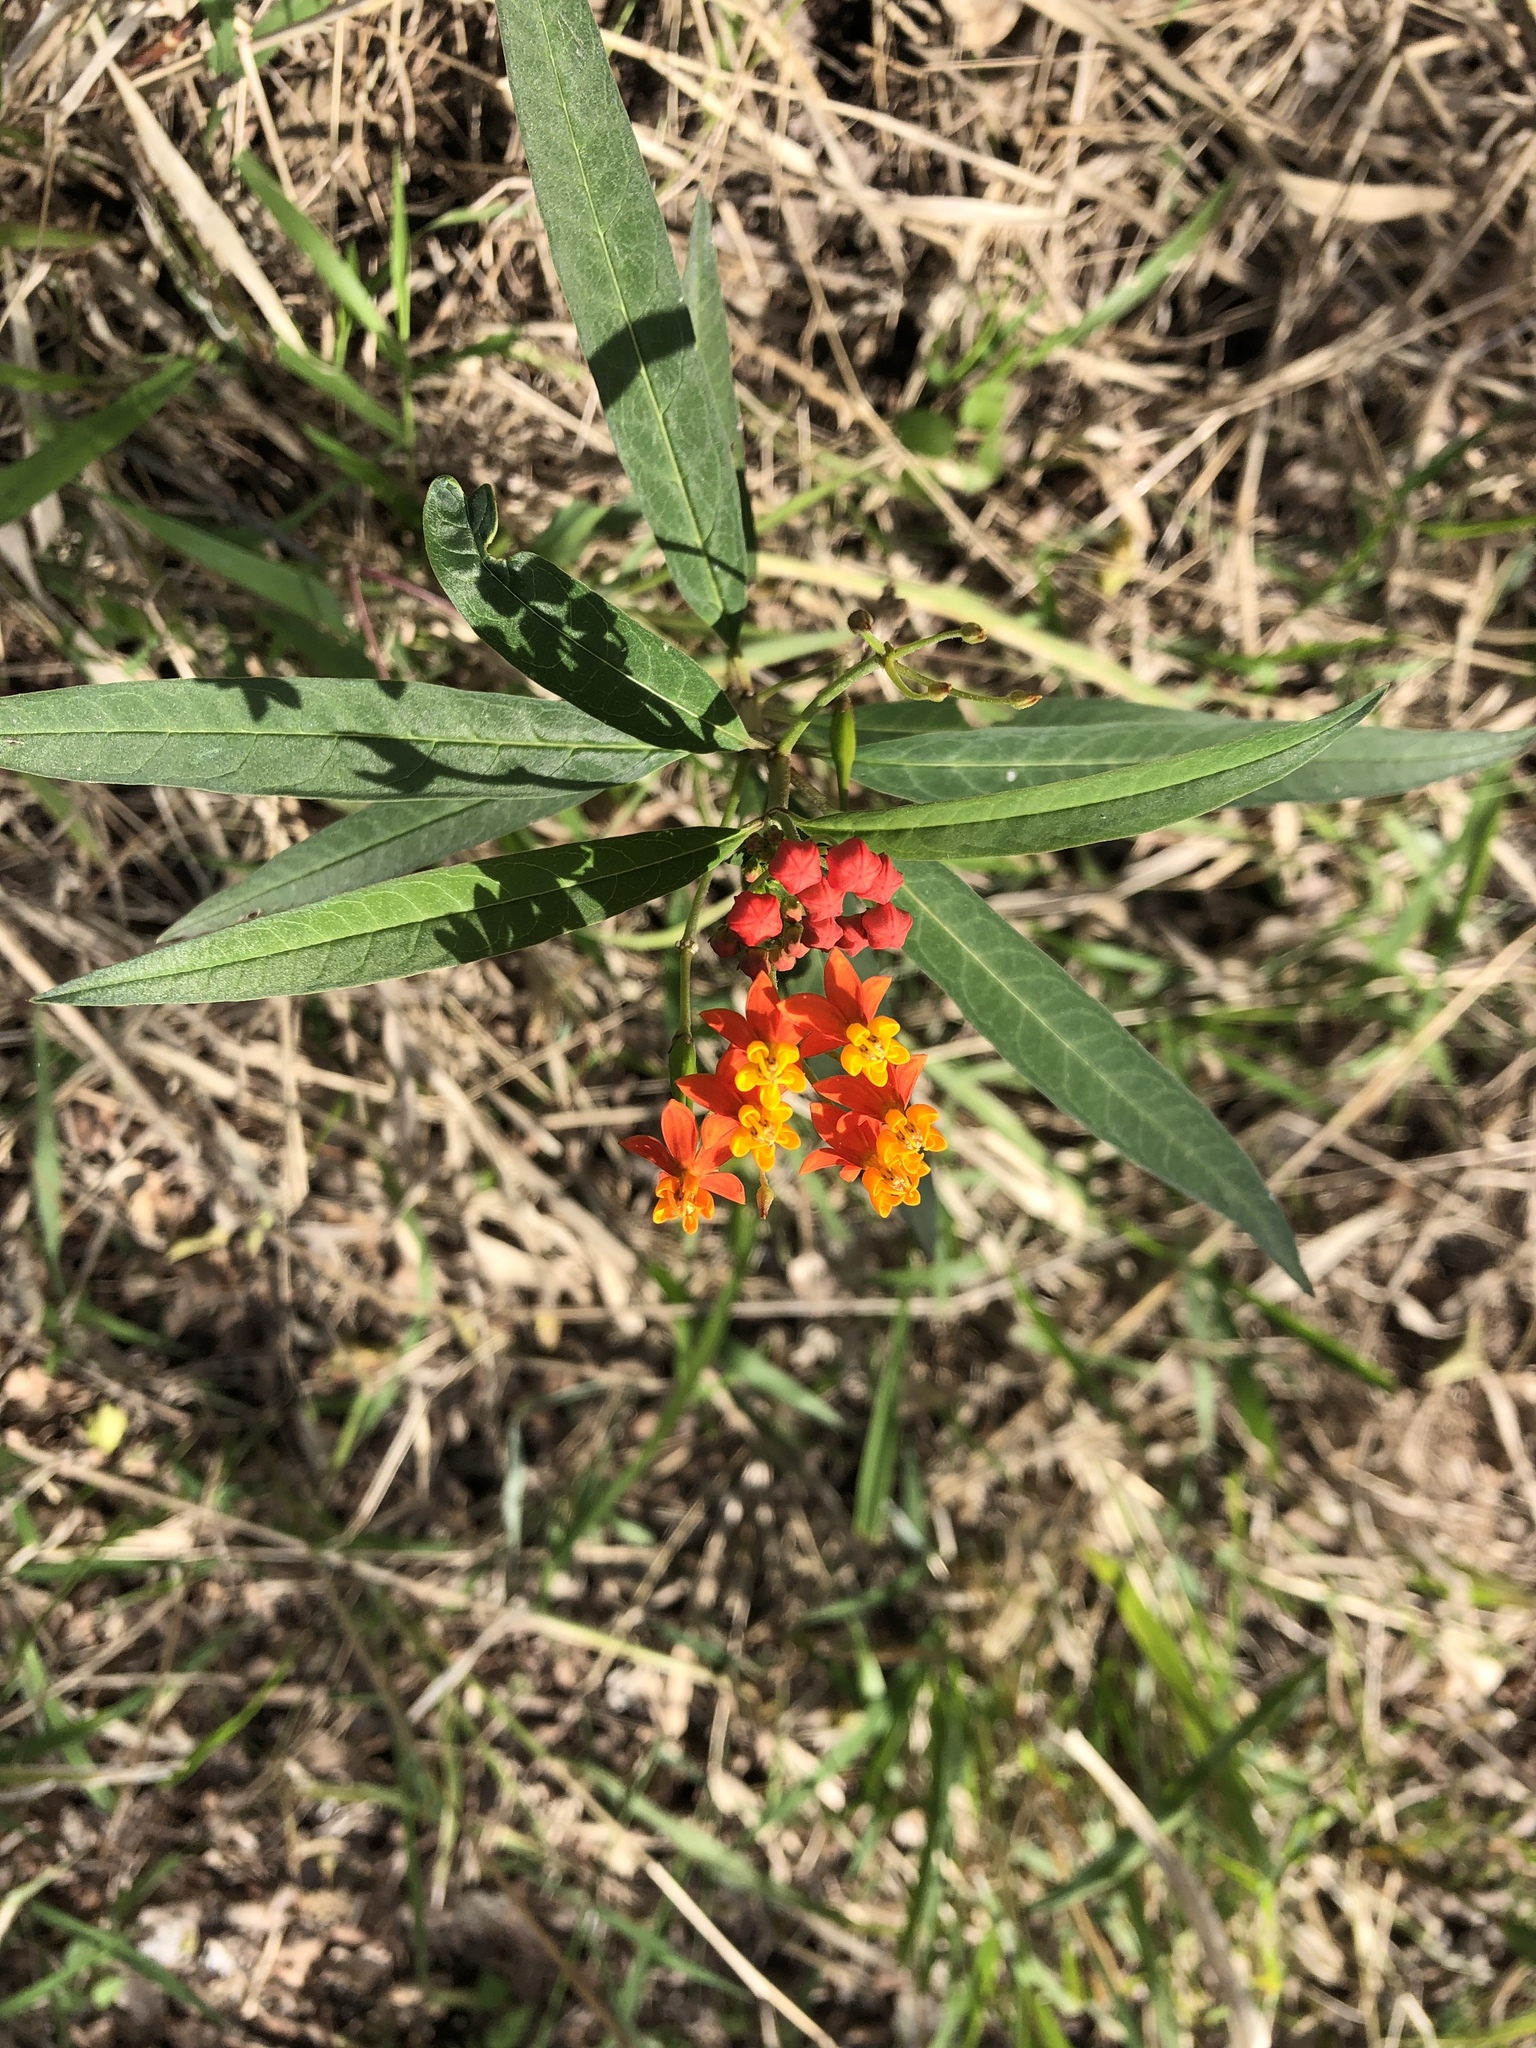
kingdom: Plantae
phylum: Tracheophyta
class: Magnoliopsida
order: Gentianales
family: Apocynaceae
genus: Asclepias
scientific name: Asclepias curassavica
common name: Bloodflower
